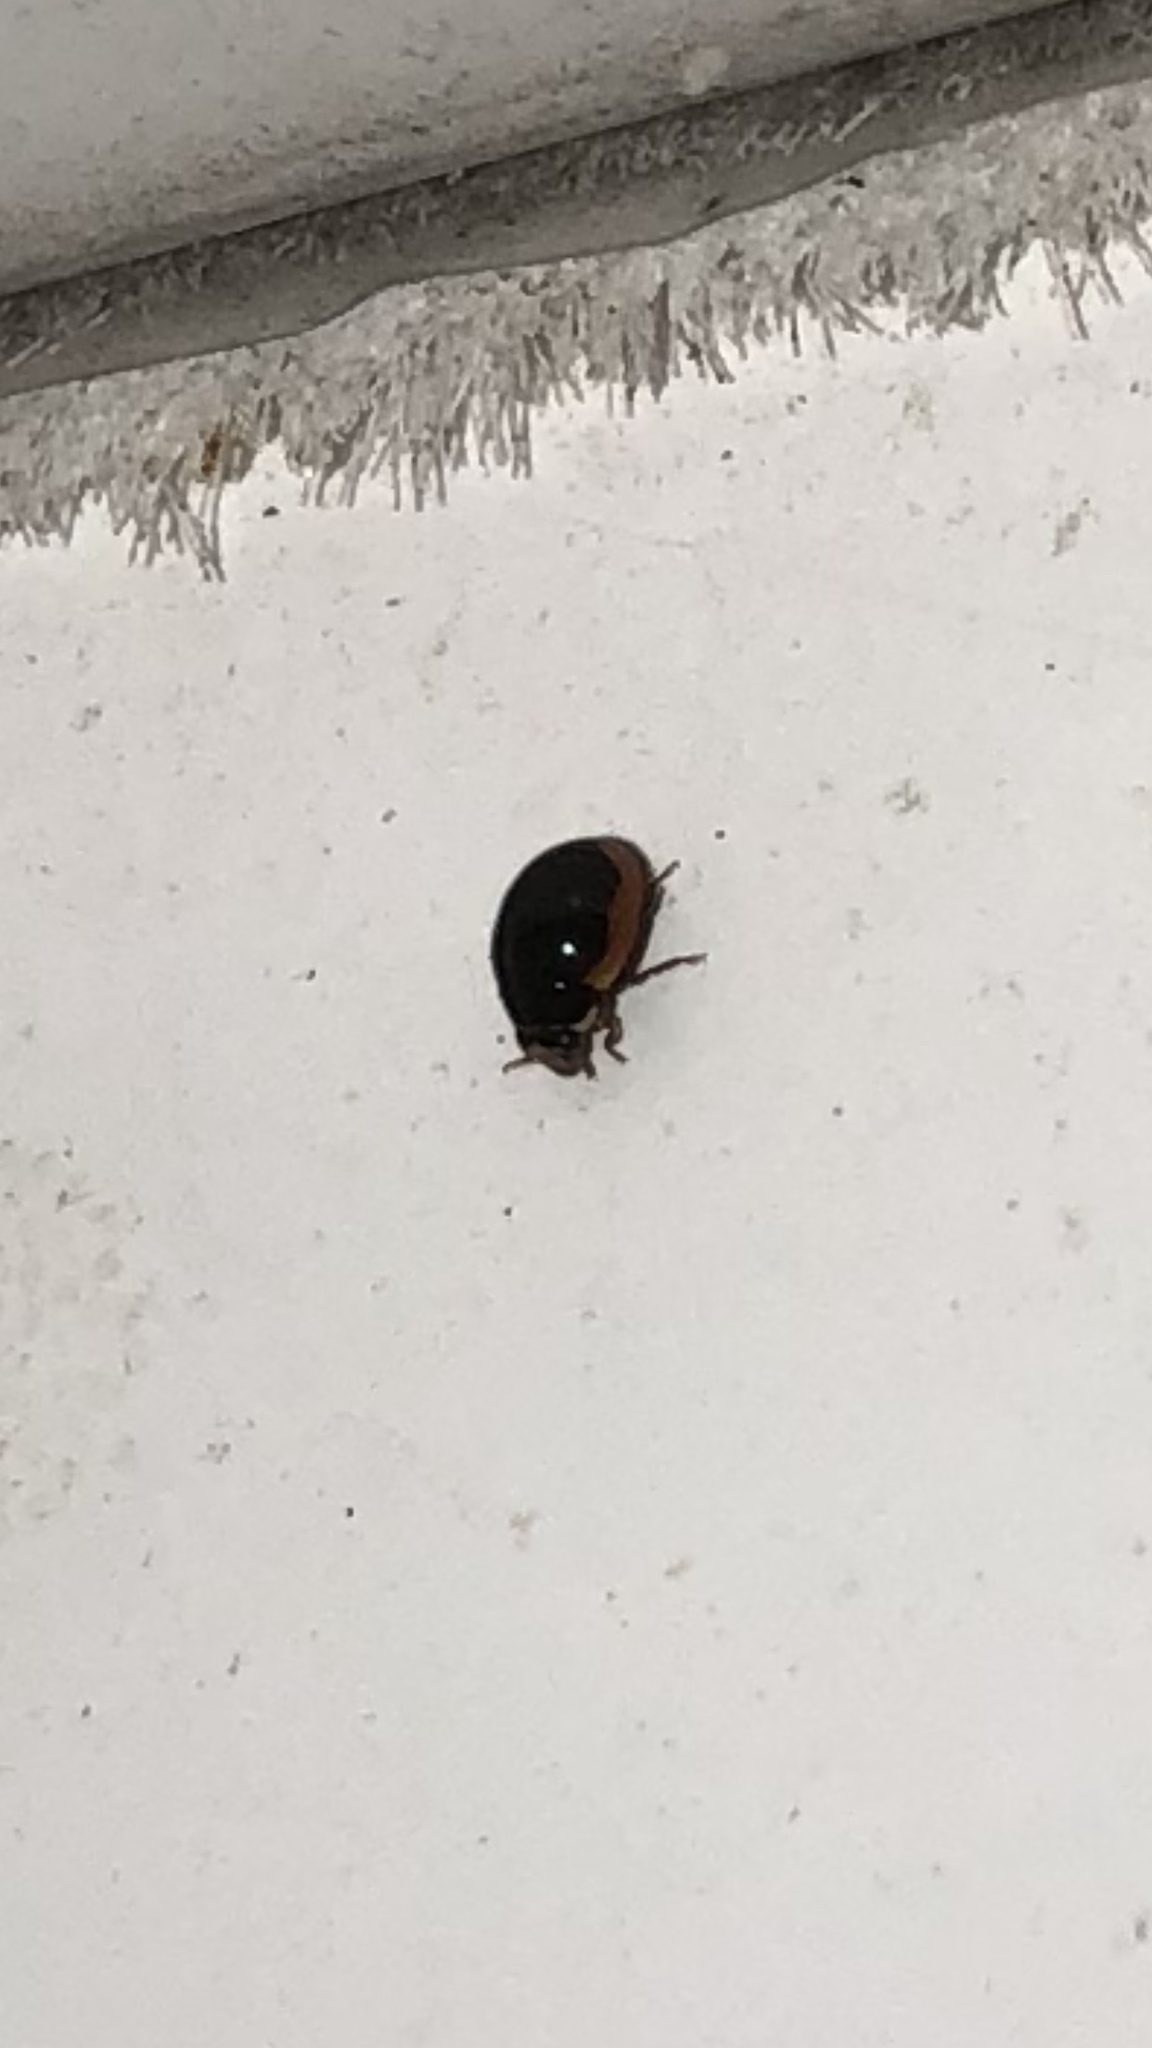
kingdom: Animalia
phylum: Arthropoda
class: Insecta
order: Coleoptera
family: Coccinellidae
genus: Hyperaspis
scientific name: Hyperaspis caseyi
